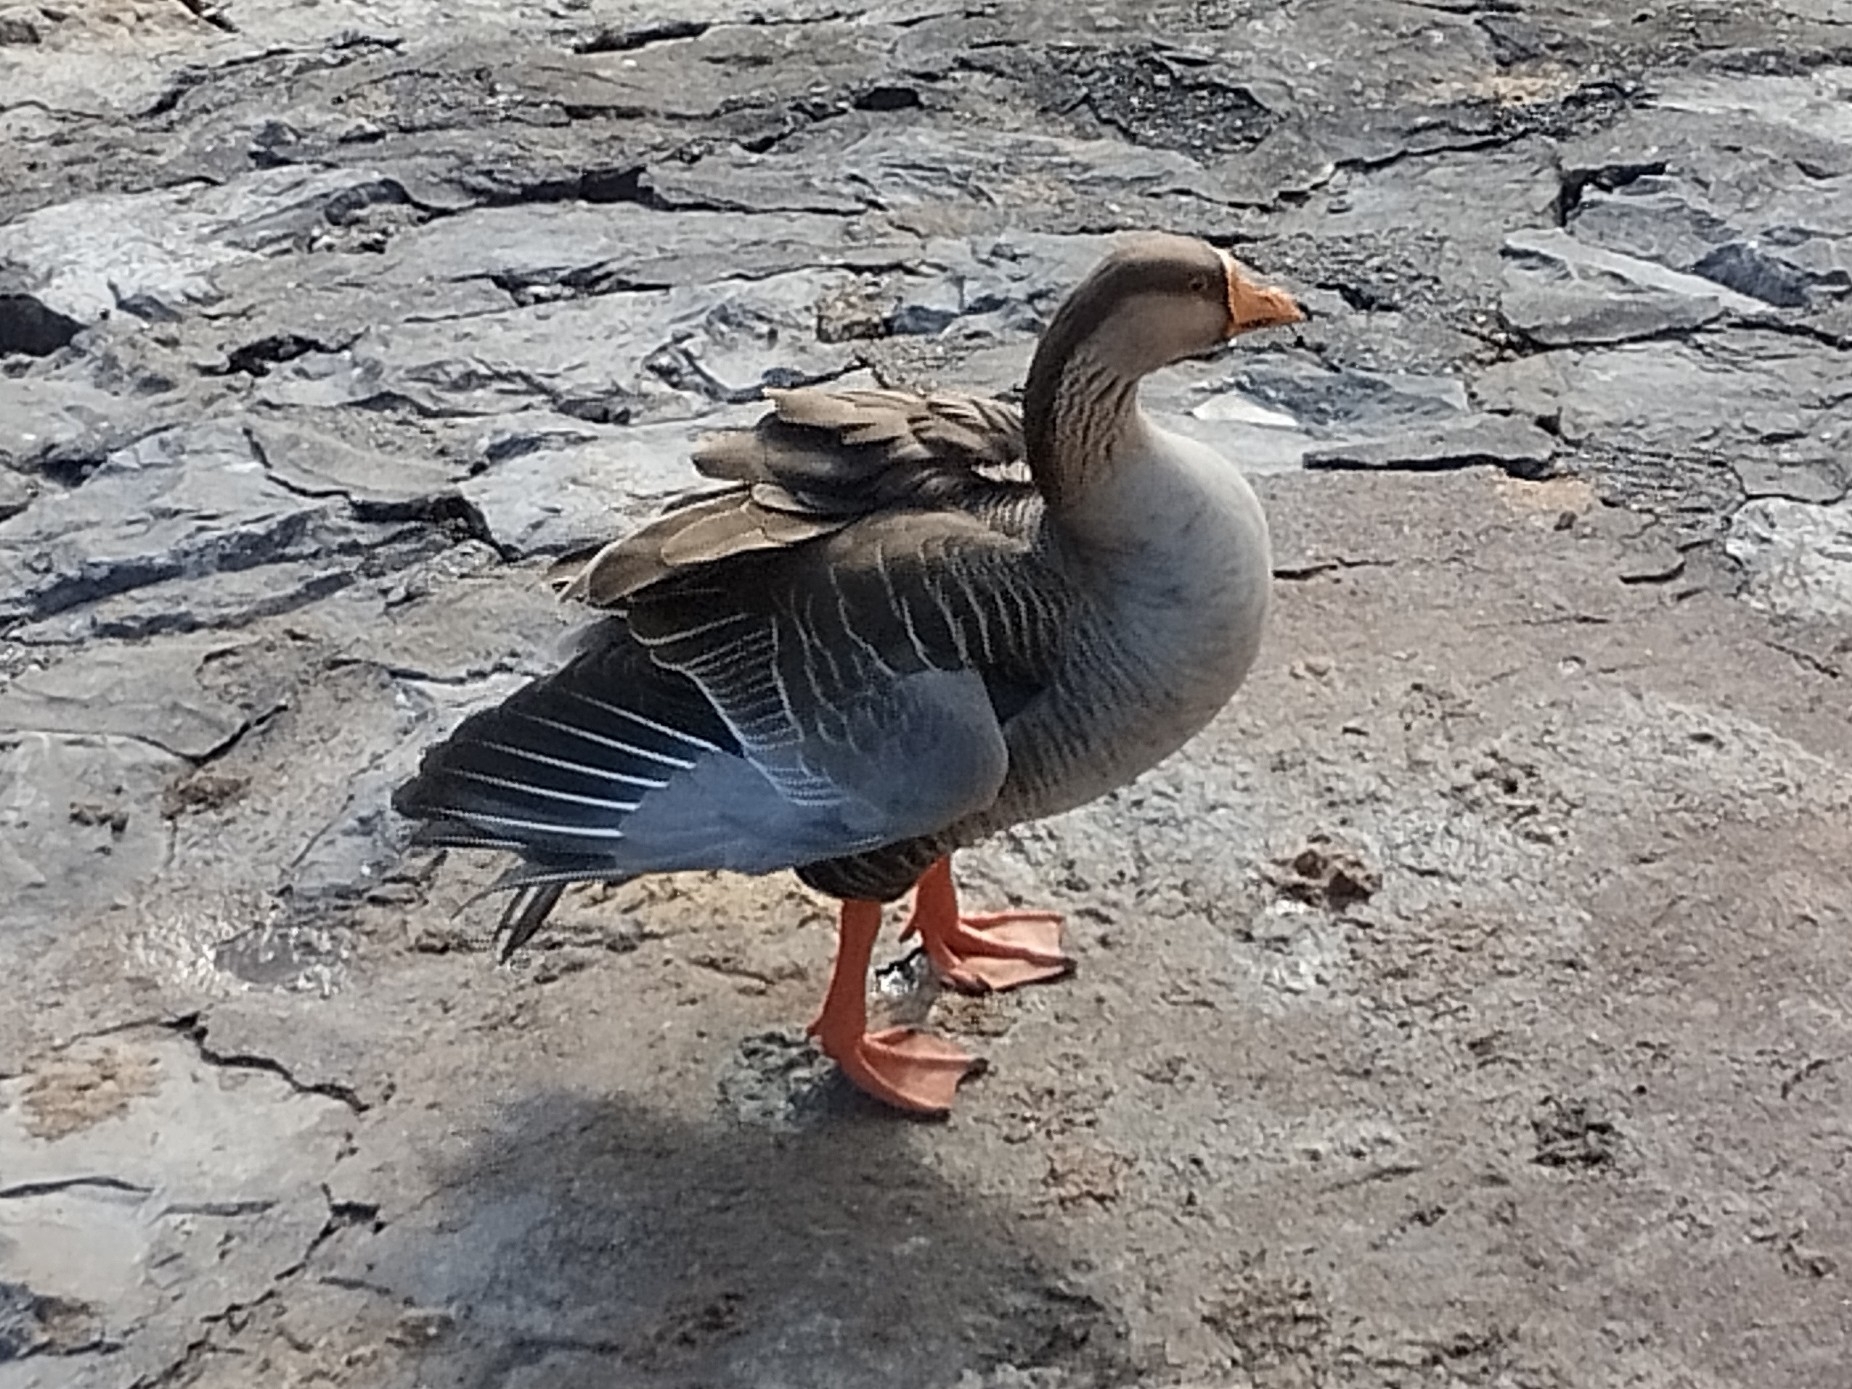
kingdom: Animalia
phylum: Chordata
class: Aves
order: Anseriformes
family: Anatidae
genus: Anser
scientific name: Anser
